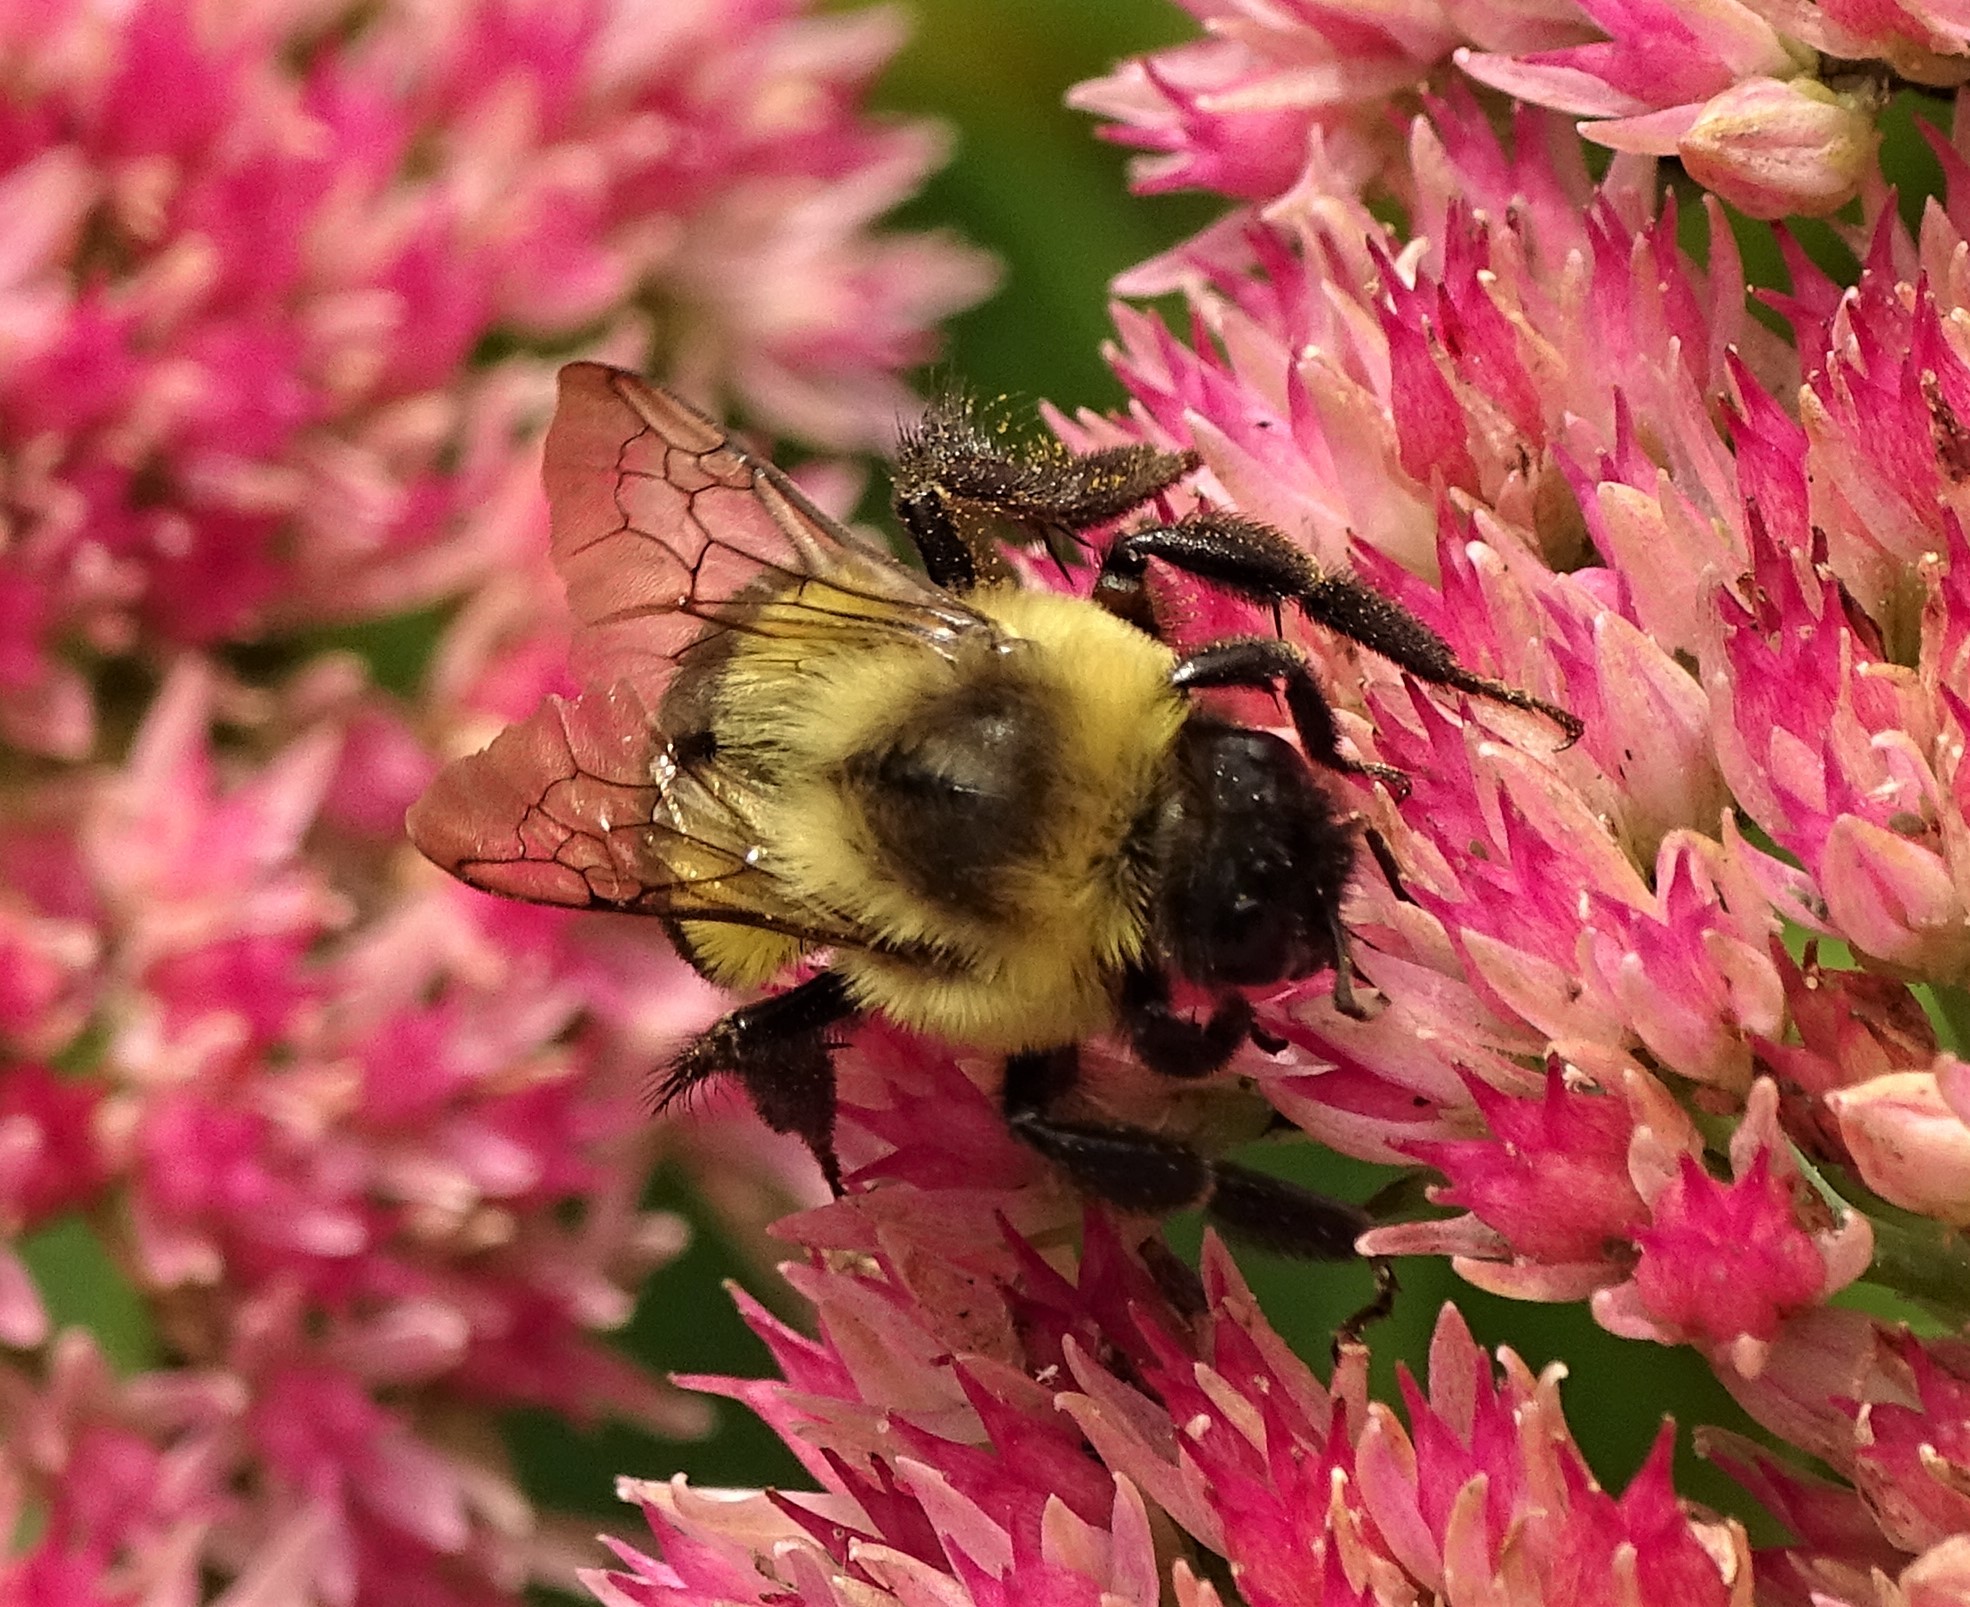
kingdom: Animalia
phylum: Arthropoda
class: Insecta
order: Hymenoptera
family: Apidae
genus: Bombus
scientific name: Bombus impatiens
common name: Common eastern bumble bee
